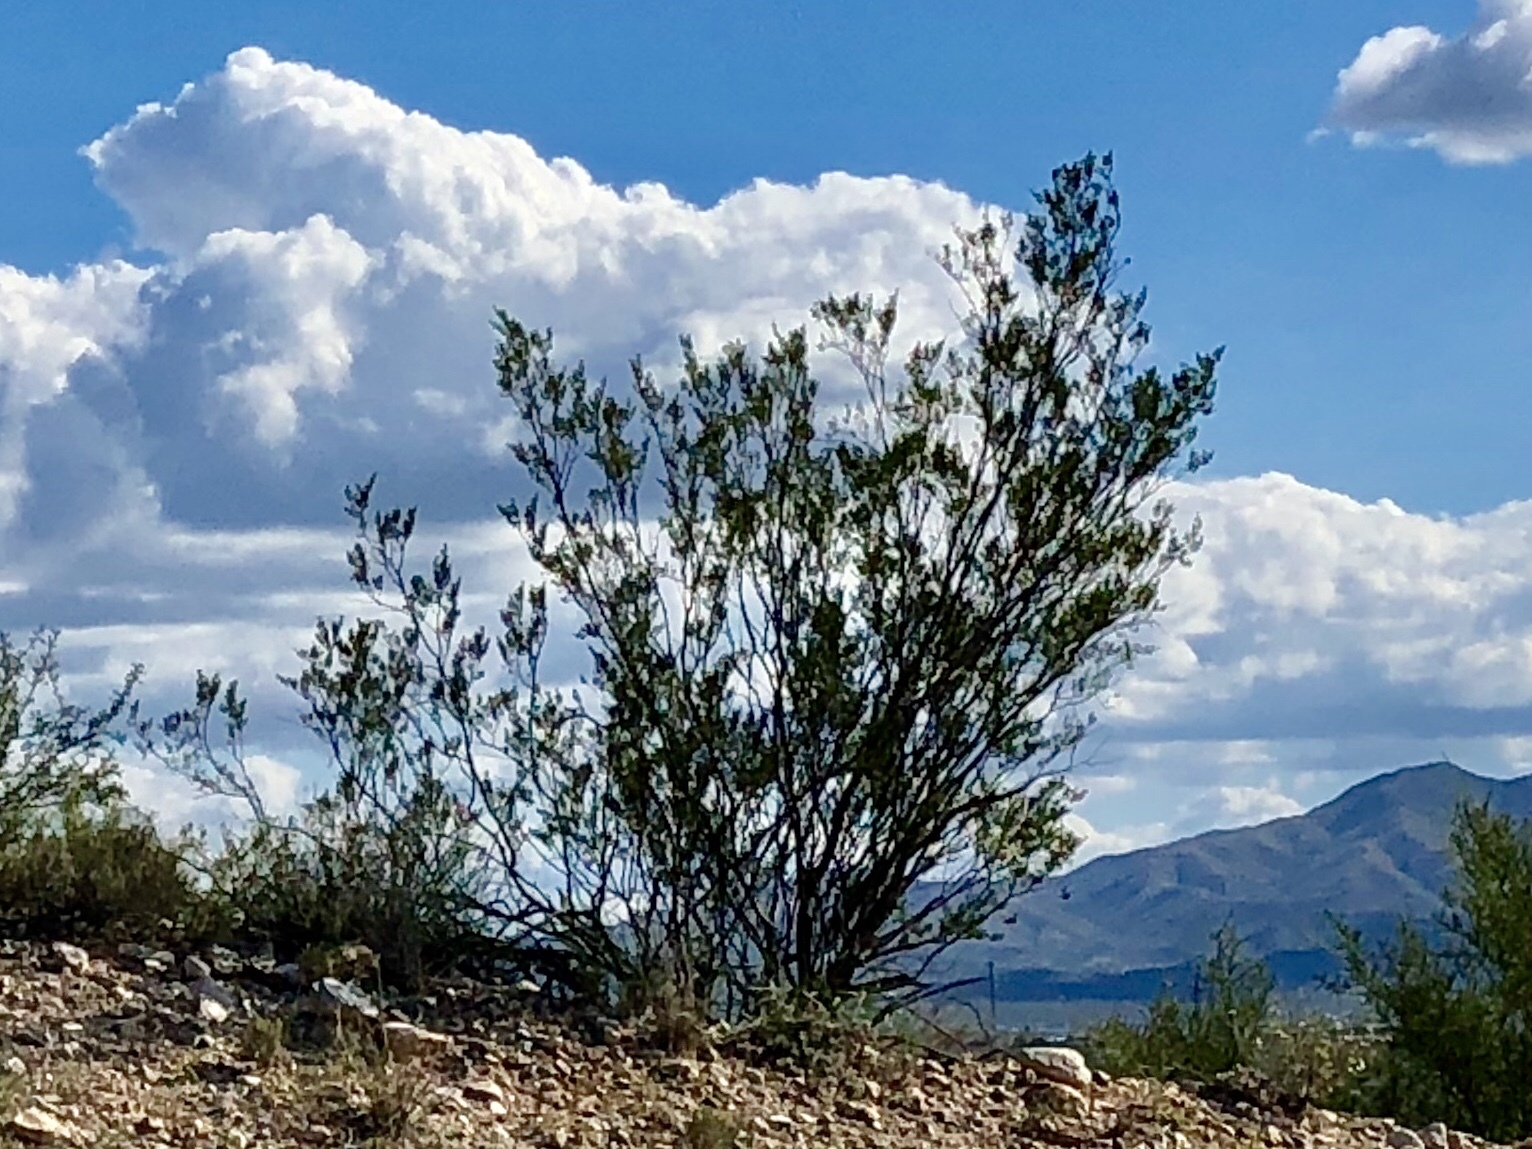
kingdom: Plantae
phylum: Tracheophyta
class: Magnoliopsida
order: Zygophyllales
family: Zygophyllaceae
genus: Larrea
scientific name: Larrea tridentata
